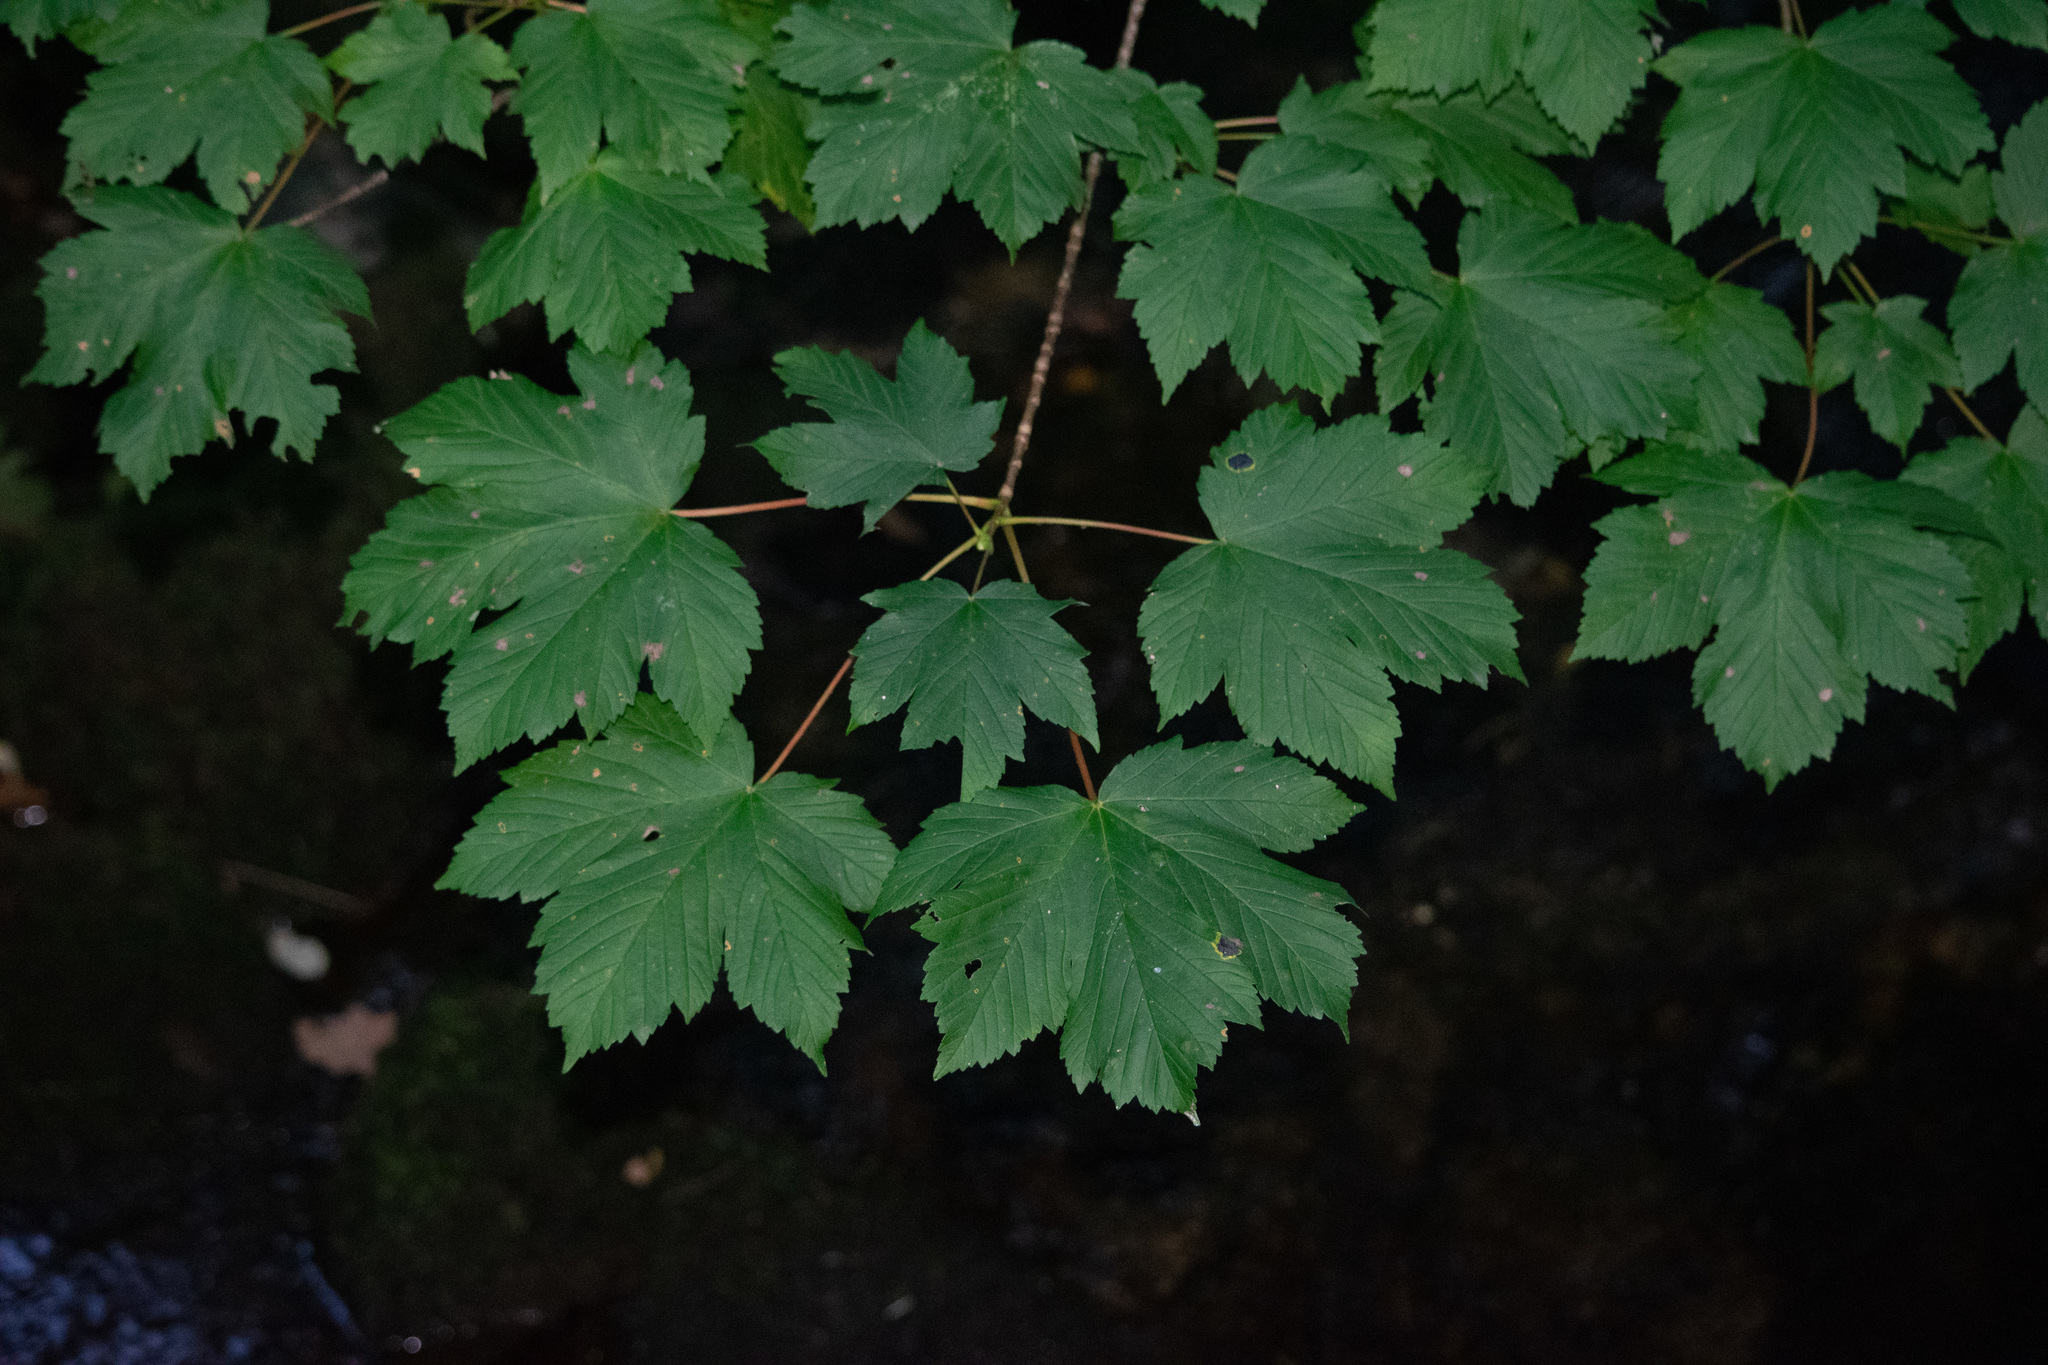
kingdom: Plantae
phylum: Tracheophyta
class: Magnoliopsida
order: Sapindales
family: Sapindaceae
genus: Acer
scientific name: Acer pseudoplatanus
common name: Sycamore
